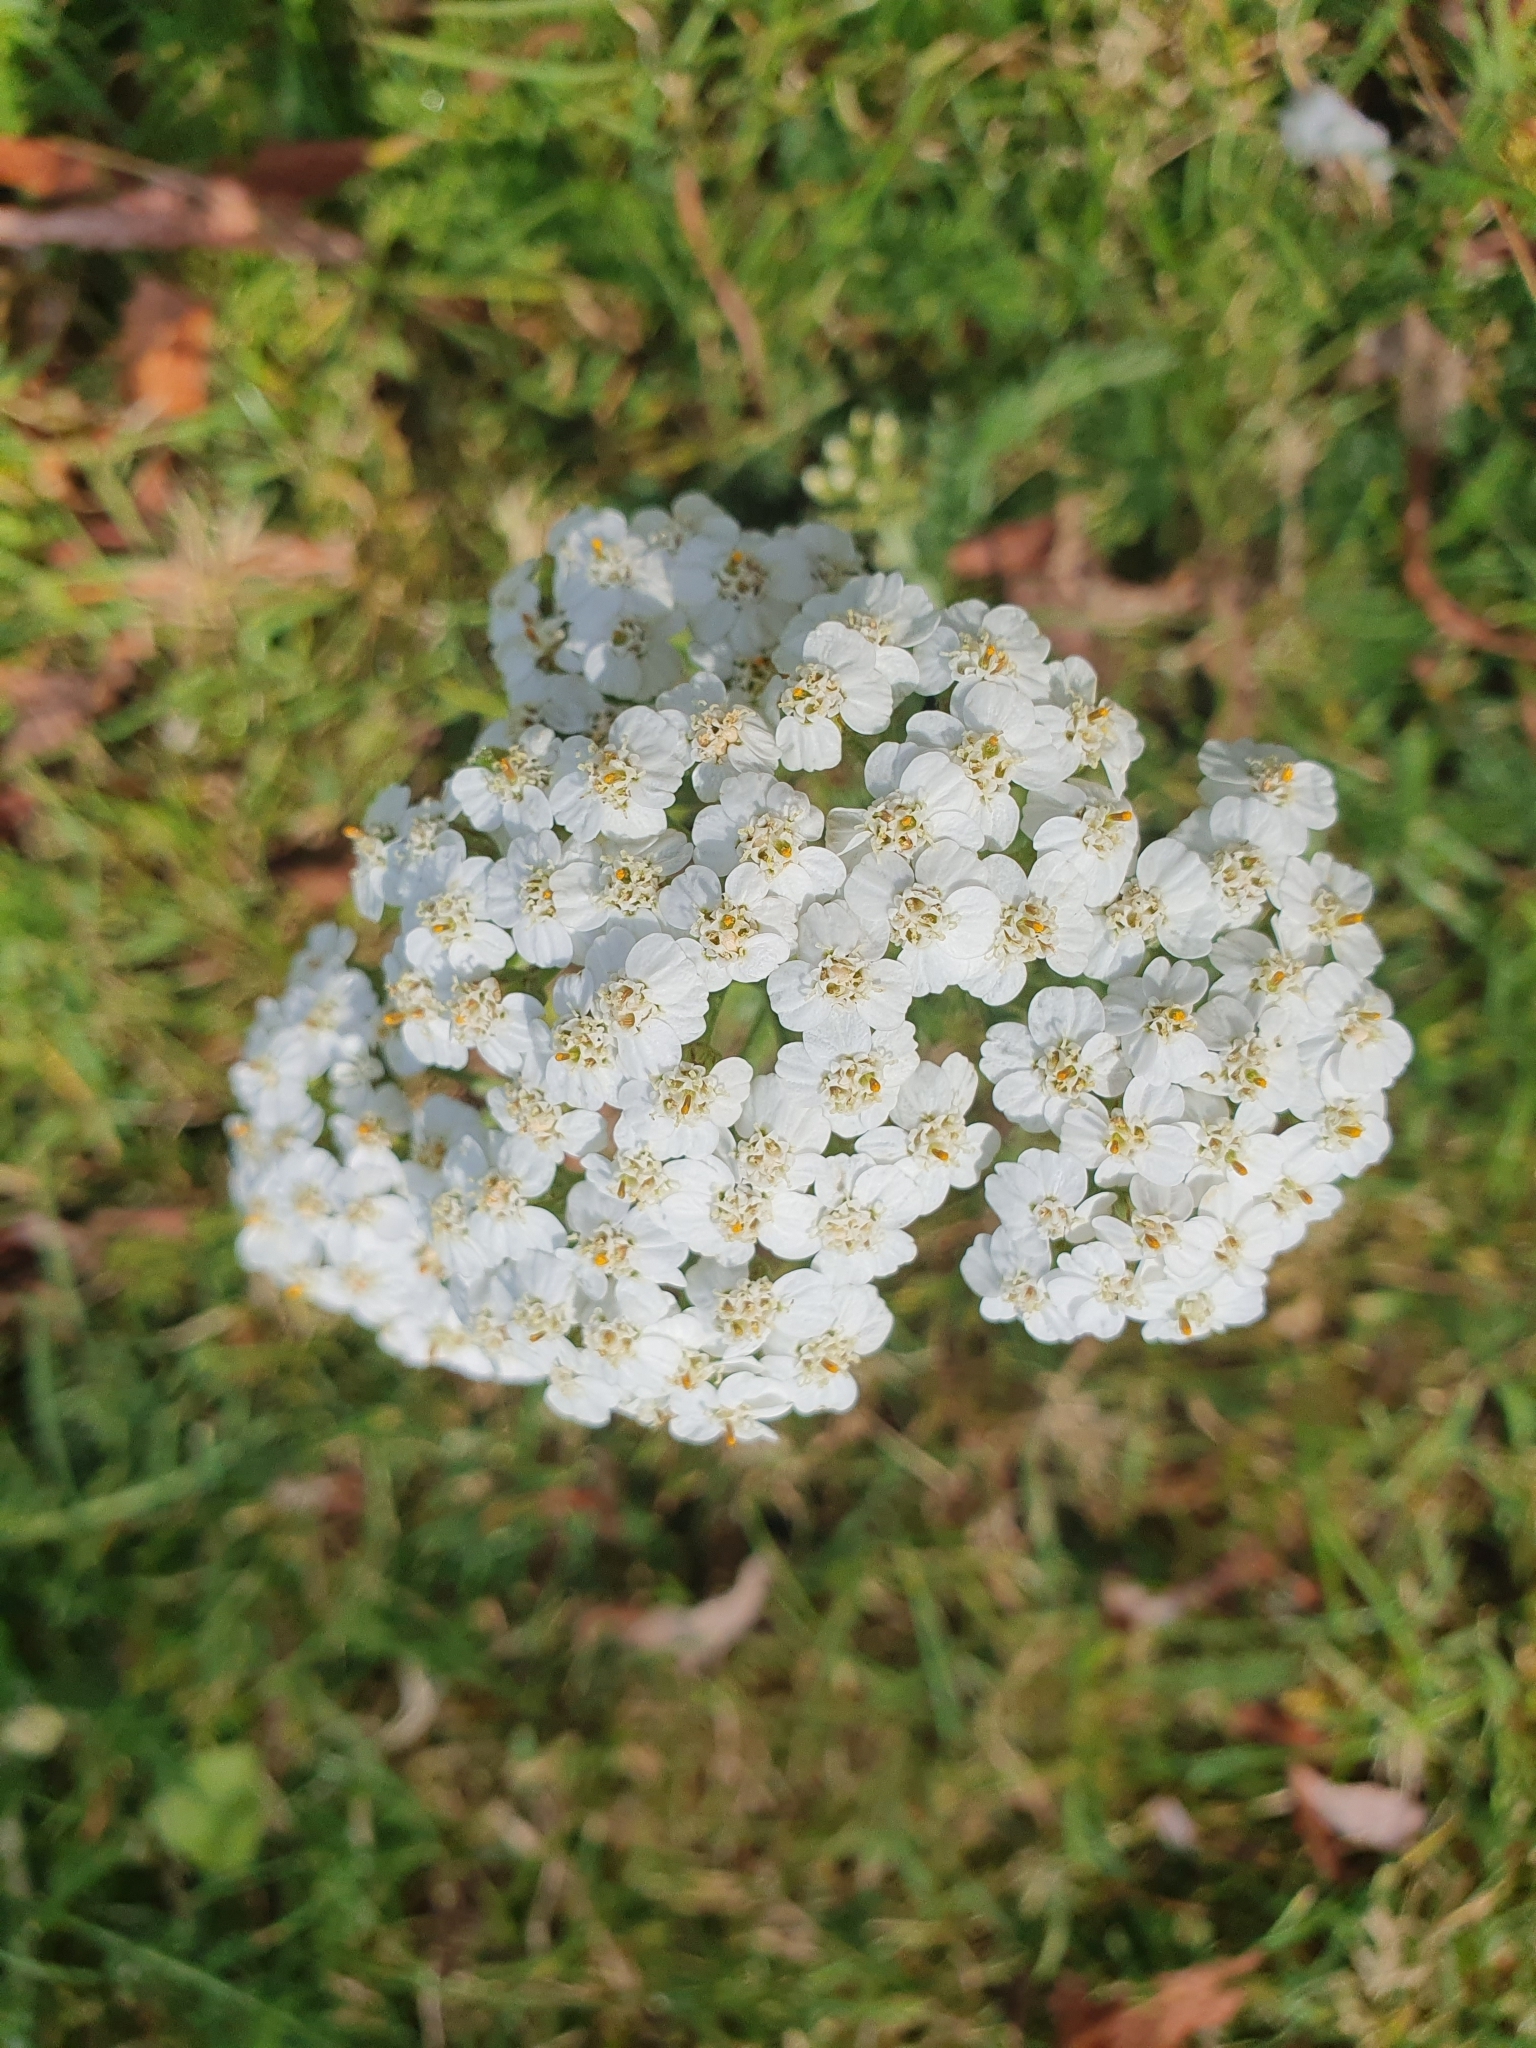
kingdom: Plantae
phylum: Tracheophyta
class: Magnoliopsida
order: Asterales
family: Asteraceae
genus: Achillea
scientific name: Achillea millefolium
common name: Yarrow
